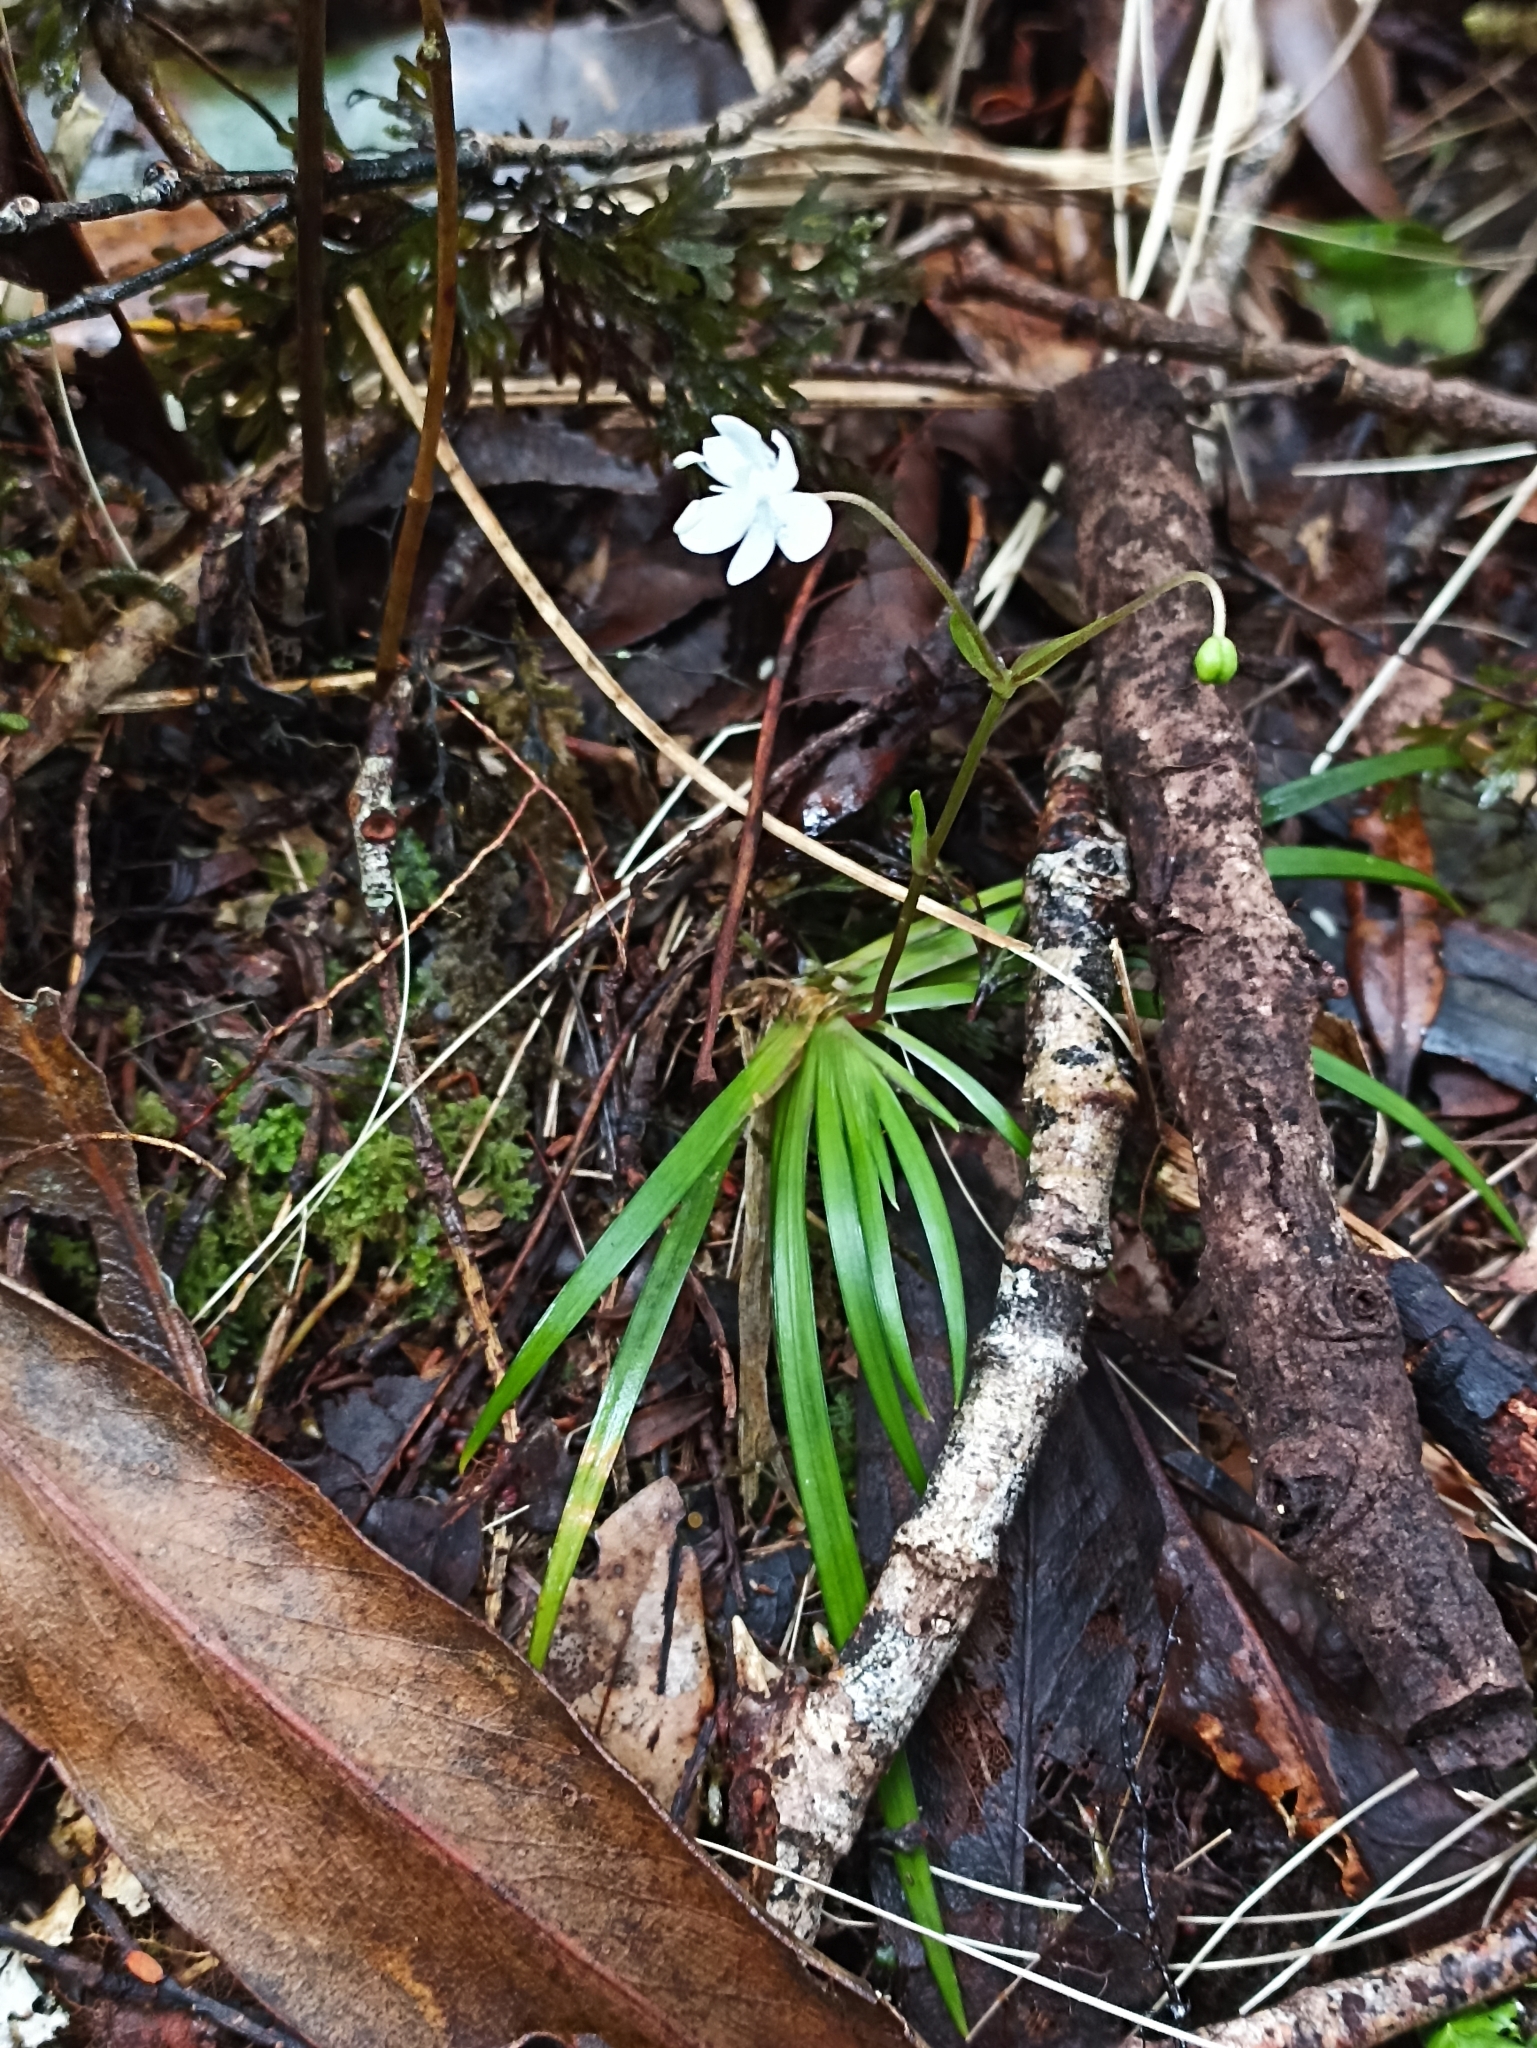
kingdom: Plantae
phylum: Tracheophyta
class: Liliopsida
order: Asparagales
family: Iridaceae
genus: Libertia
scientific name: Libertia micrantha
